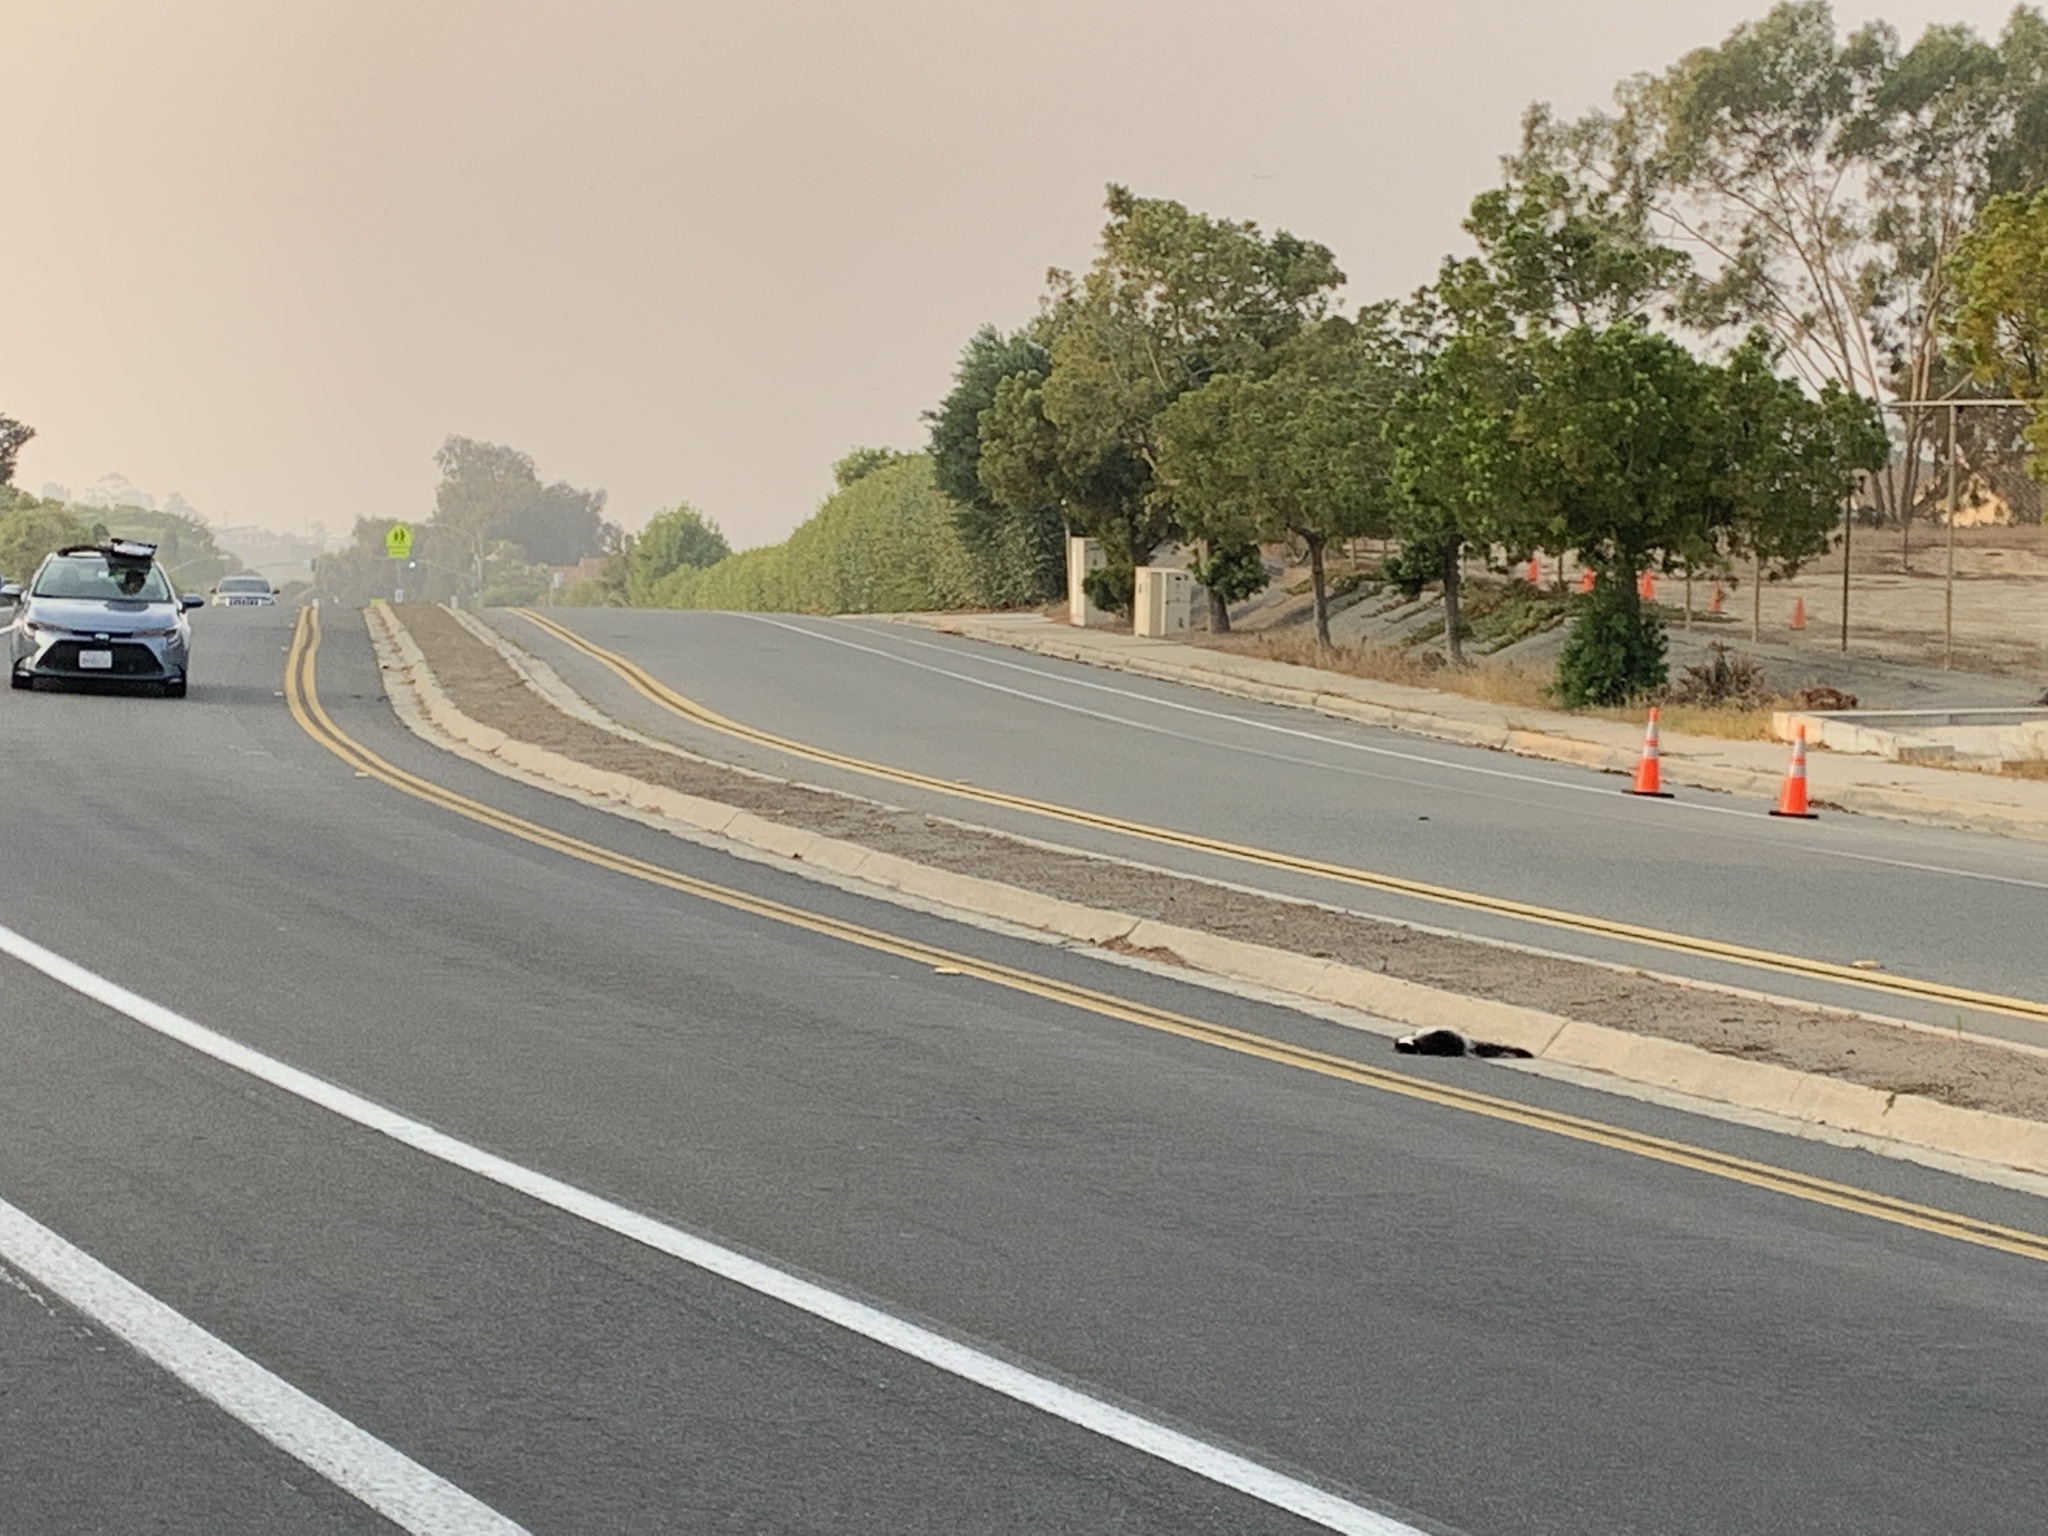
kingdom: Animalia
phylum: Chordata
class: Mammalia
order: Carnivora
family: Mephitidae
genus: Mephitis
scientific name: Mephitis mephitis
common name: Striped skunk
